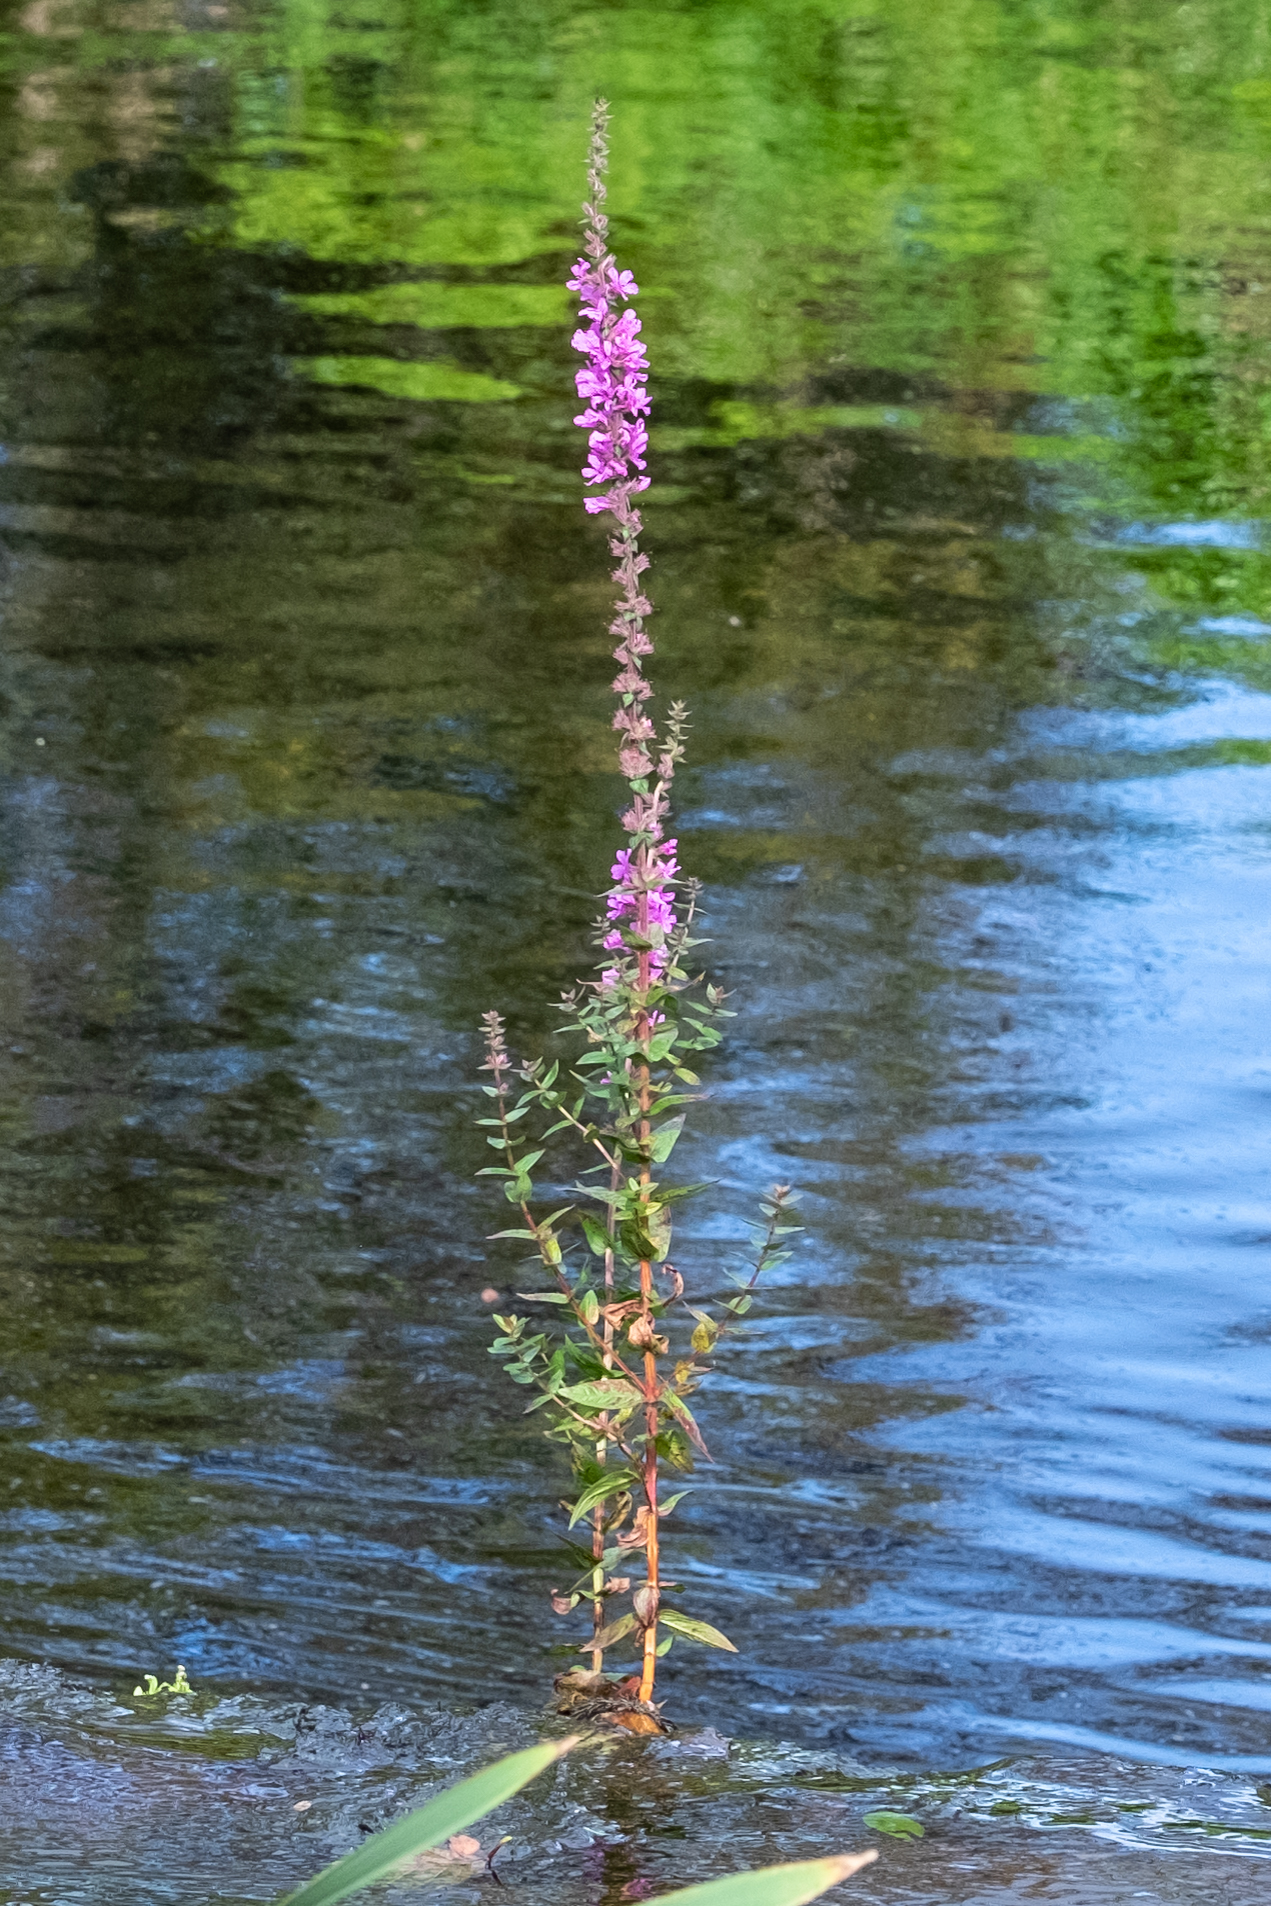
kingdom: Plantae
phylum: Tracheophyta
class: Magnoliopsida
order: Myrtales
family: Lythraceae
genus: Lythrum
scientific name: Lythrum salicaria
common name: Purple loosestrife
